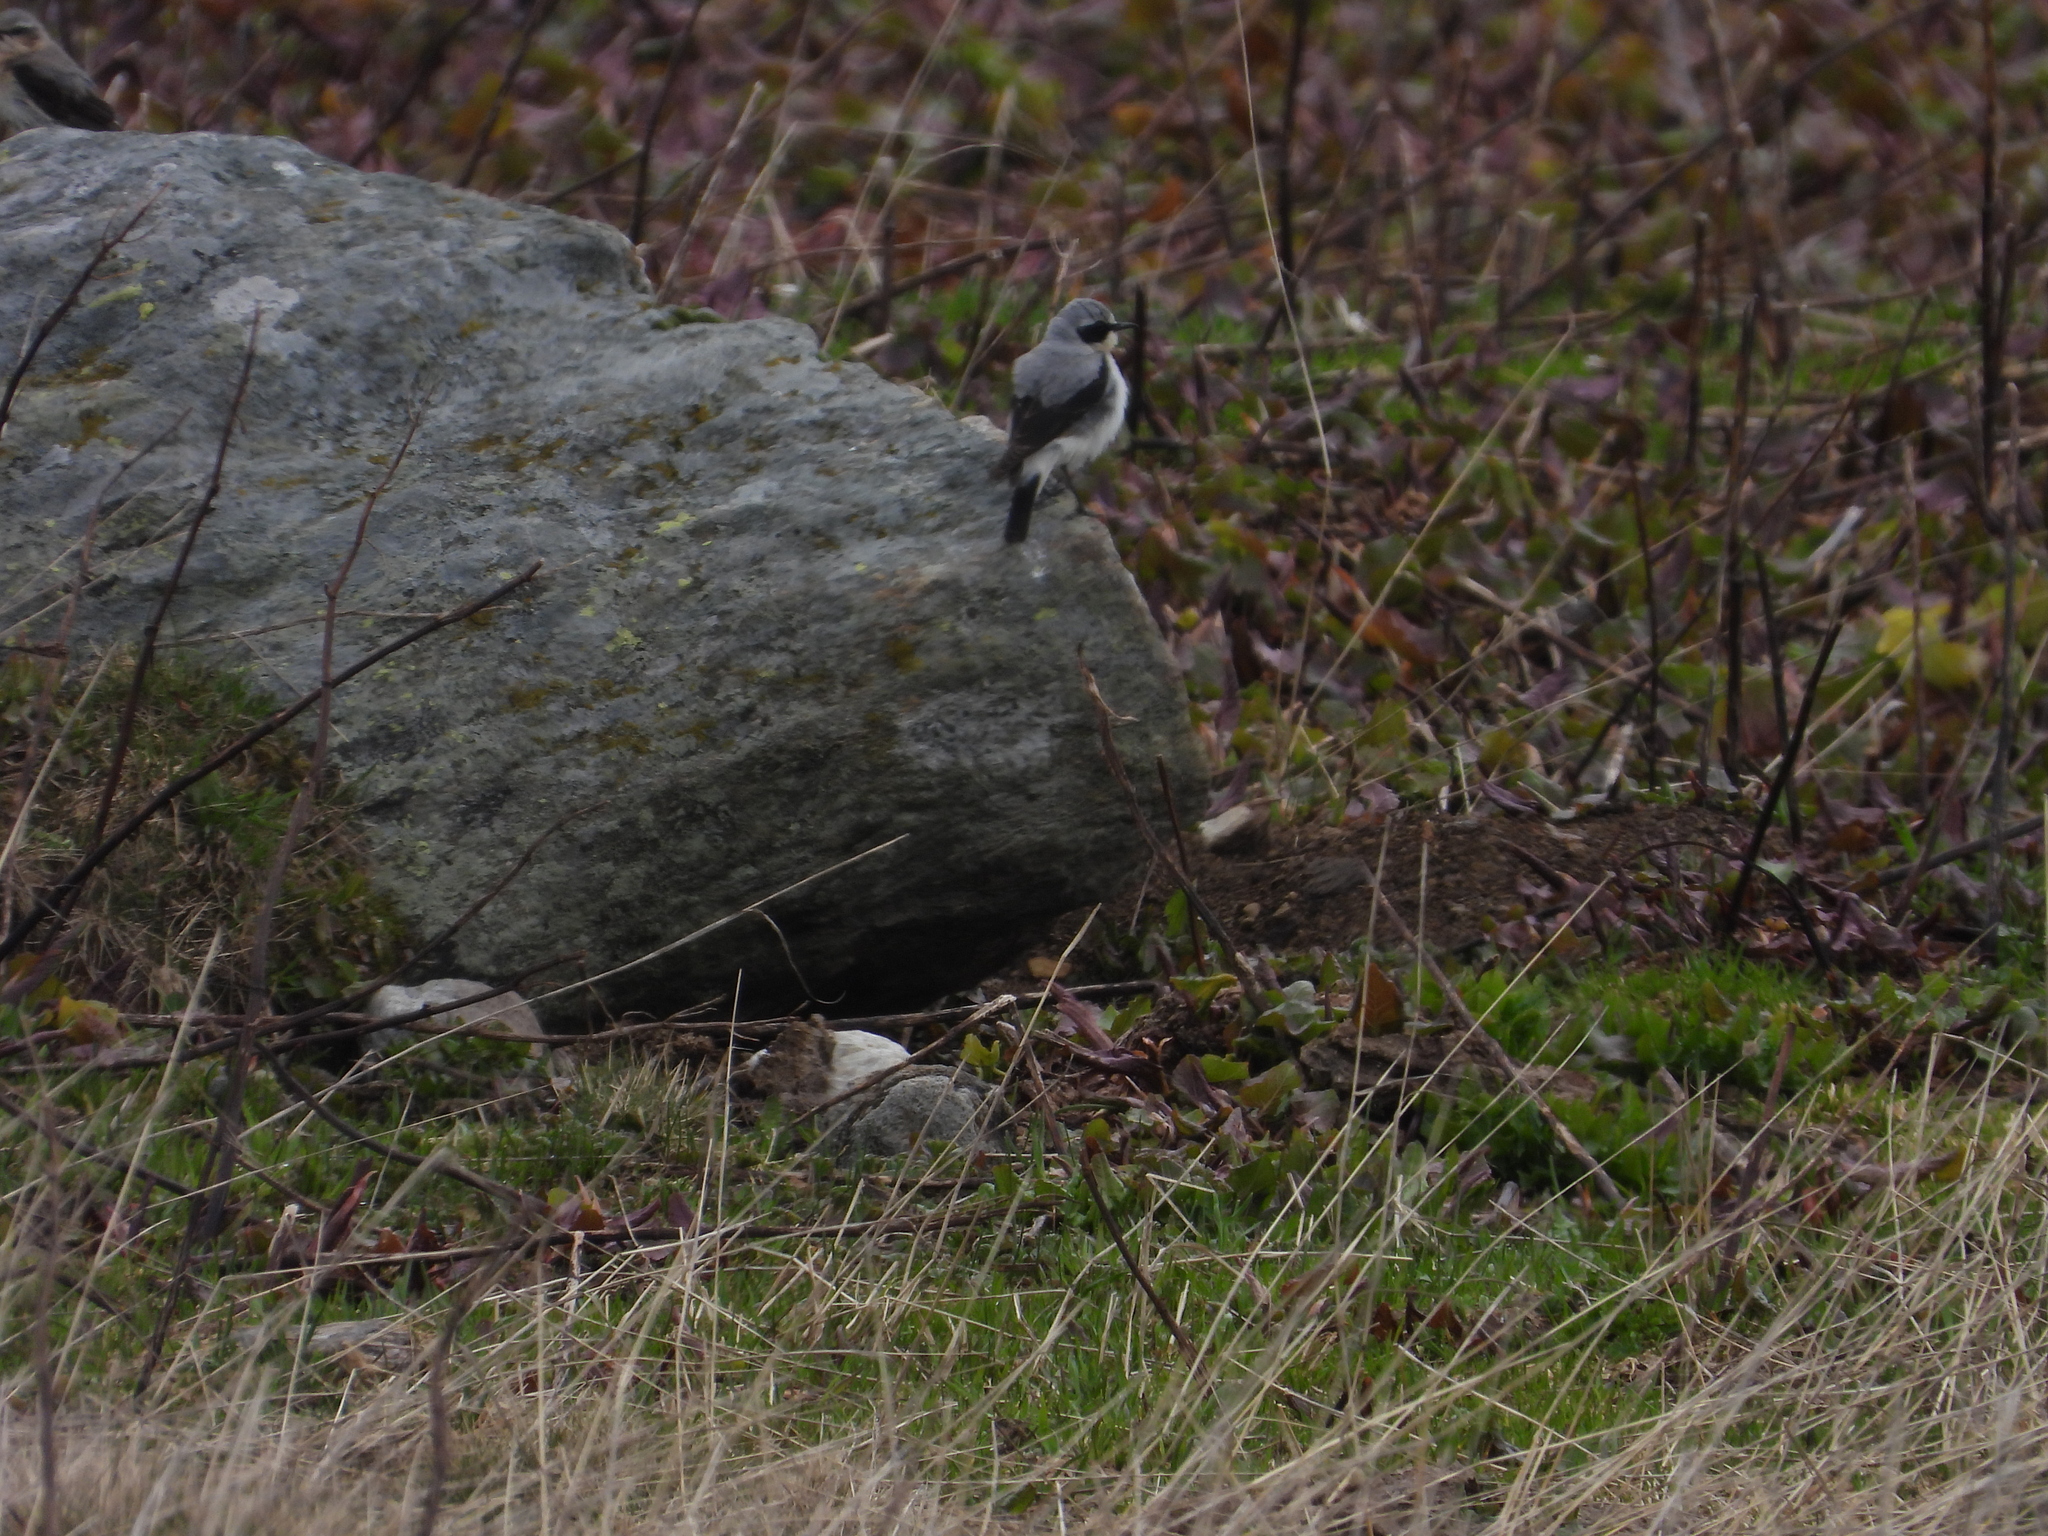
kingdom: Animalia
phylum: Chordata
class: Aves
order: Passeriformes
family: Muscicapidae
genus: Oenanthe
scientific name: Oenanthe oenanthe
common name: Northern wheatear
